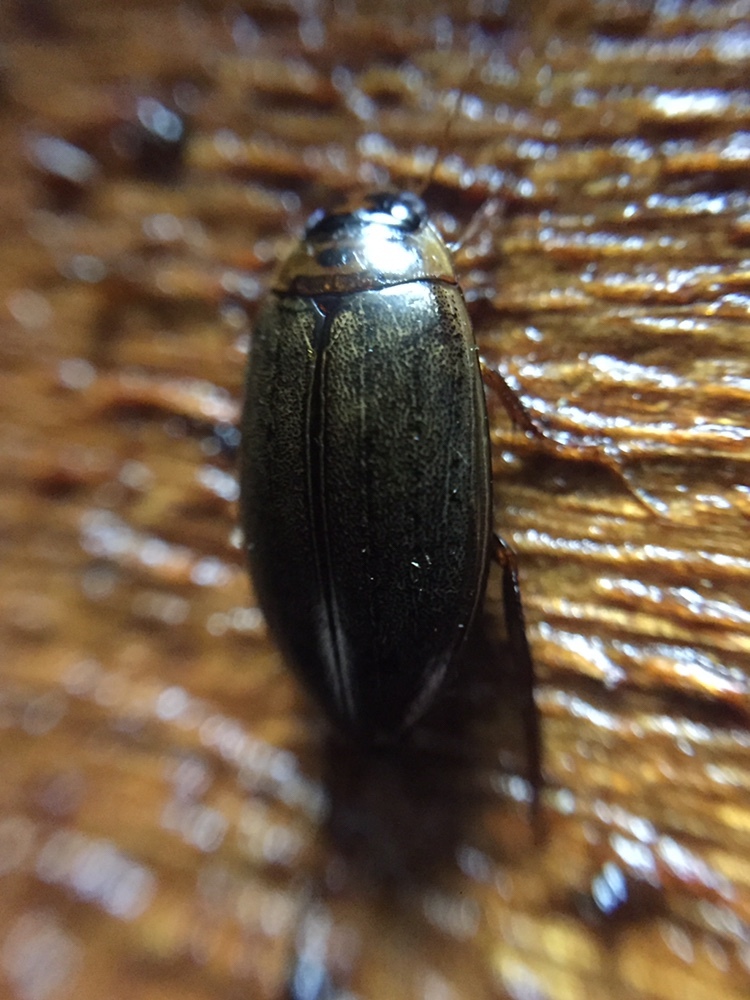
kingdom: Animalia
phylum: Arthropoda
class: Insecta
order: Coleoptera
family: Dytiscidae
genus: Rhantus
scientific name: Rhantus suturalis
